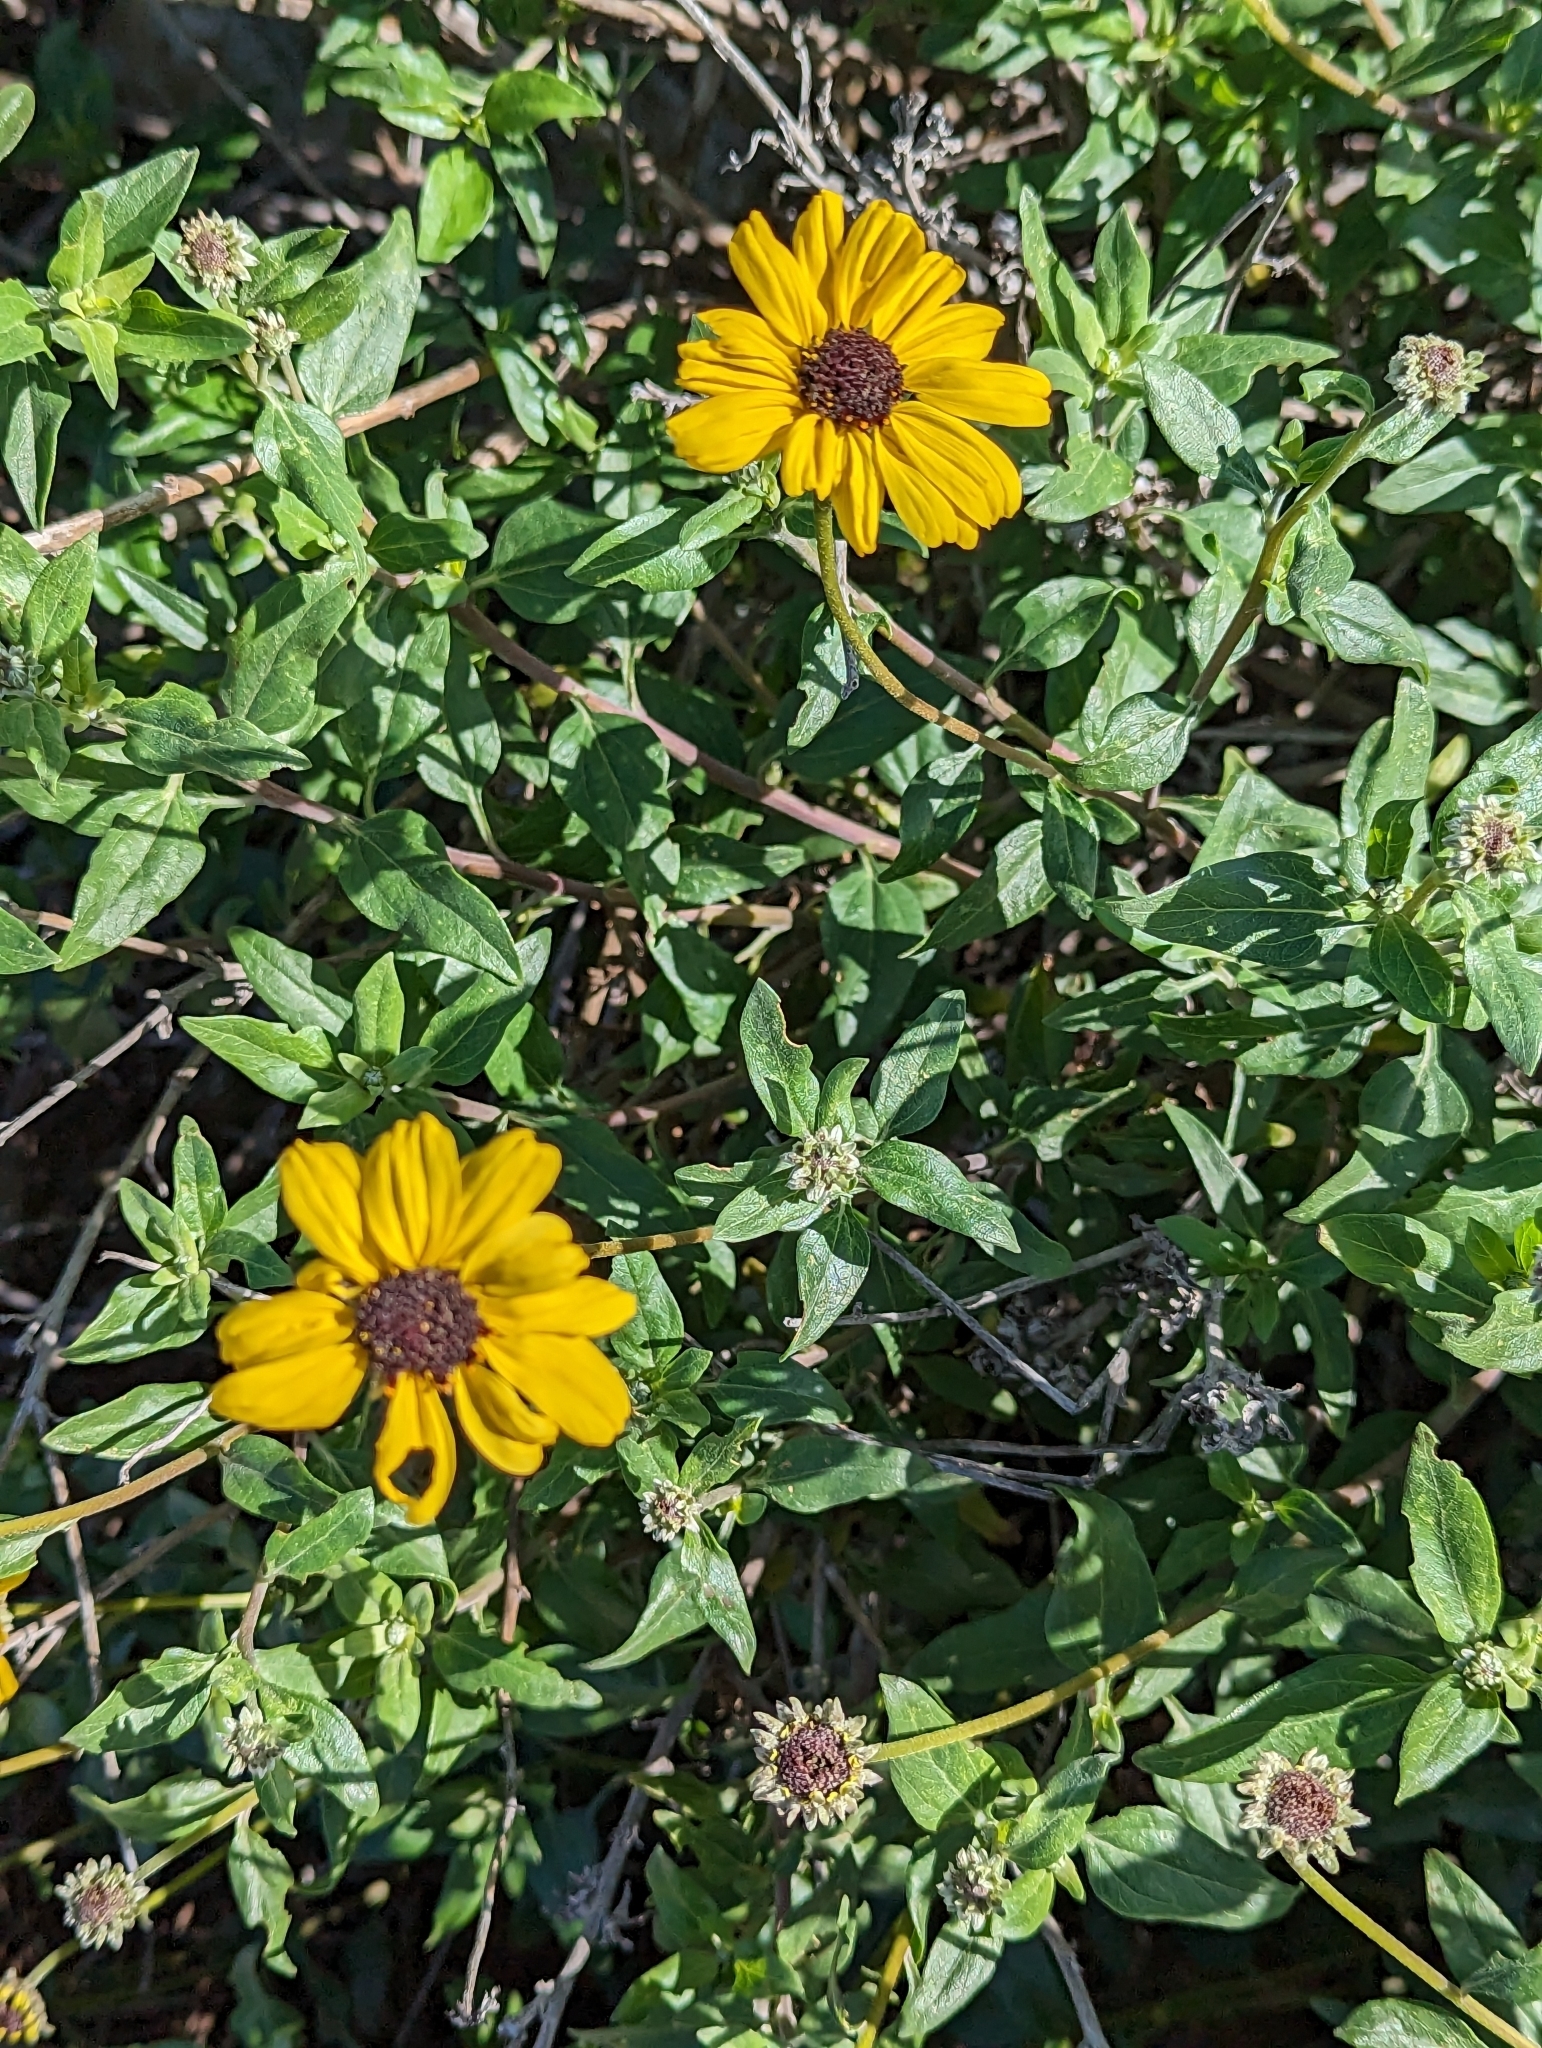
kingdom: Plantae
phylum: Tracheophyta
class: Magnoliopsida
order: Asterales
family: Asteraceae
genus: Encelia
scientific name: Encelia californica
